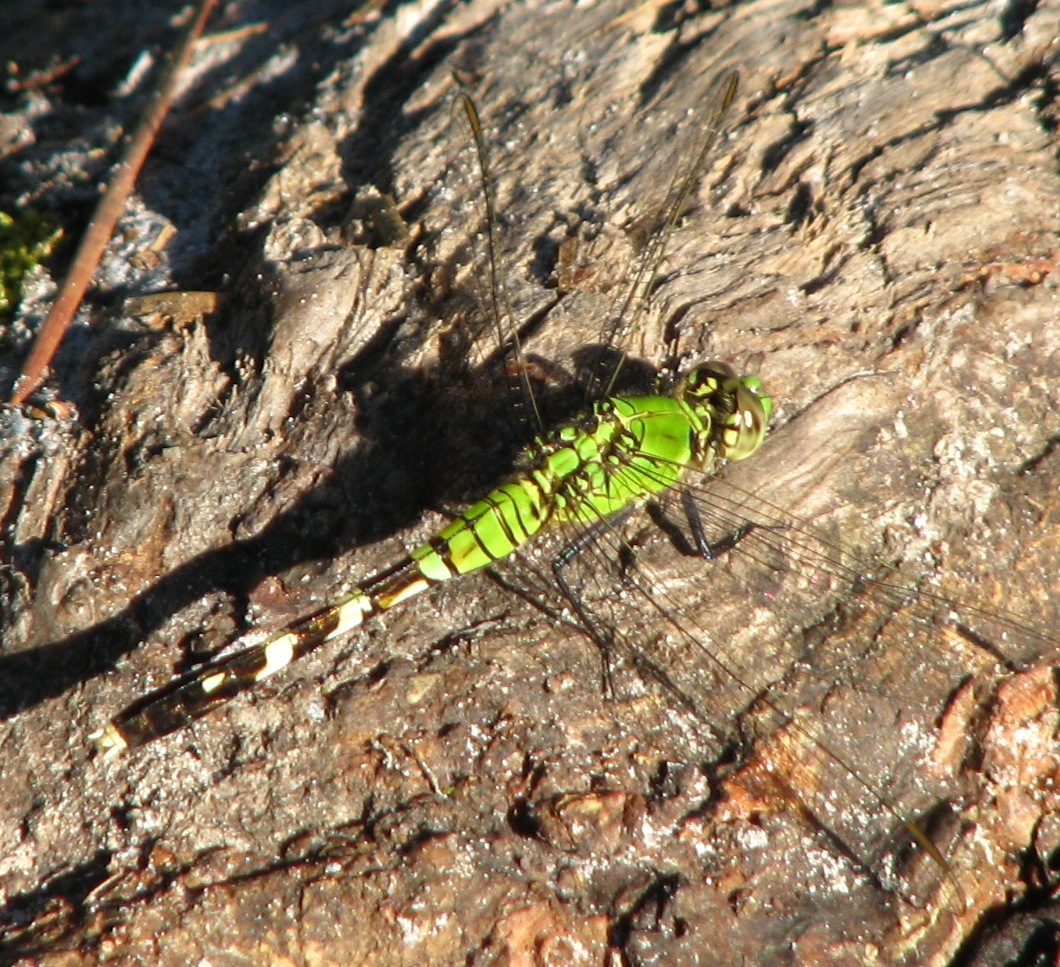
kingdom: Animalia
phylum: Arthropoda
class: Insecta
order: Odonata
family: Libellulidae
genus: Erythemis
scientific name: Erythemis simplicicollis
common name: Eastern pondhawk
